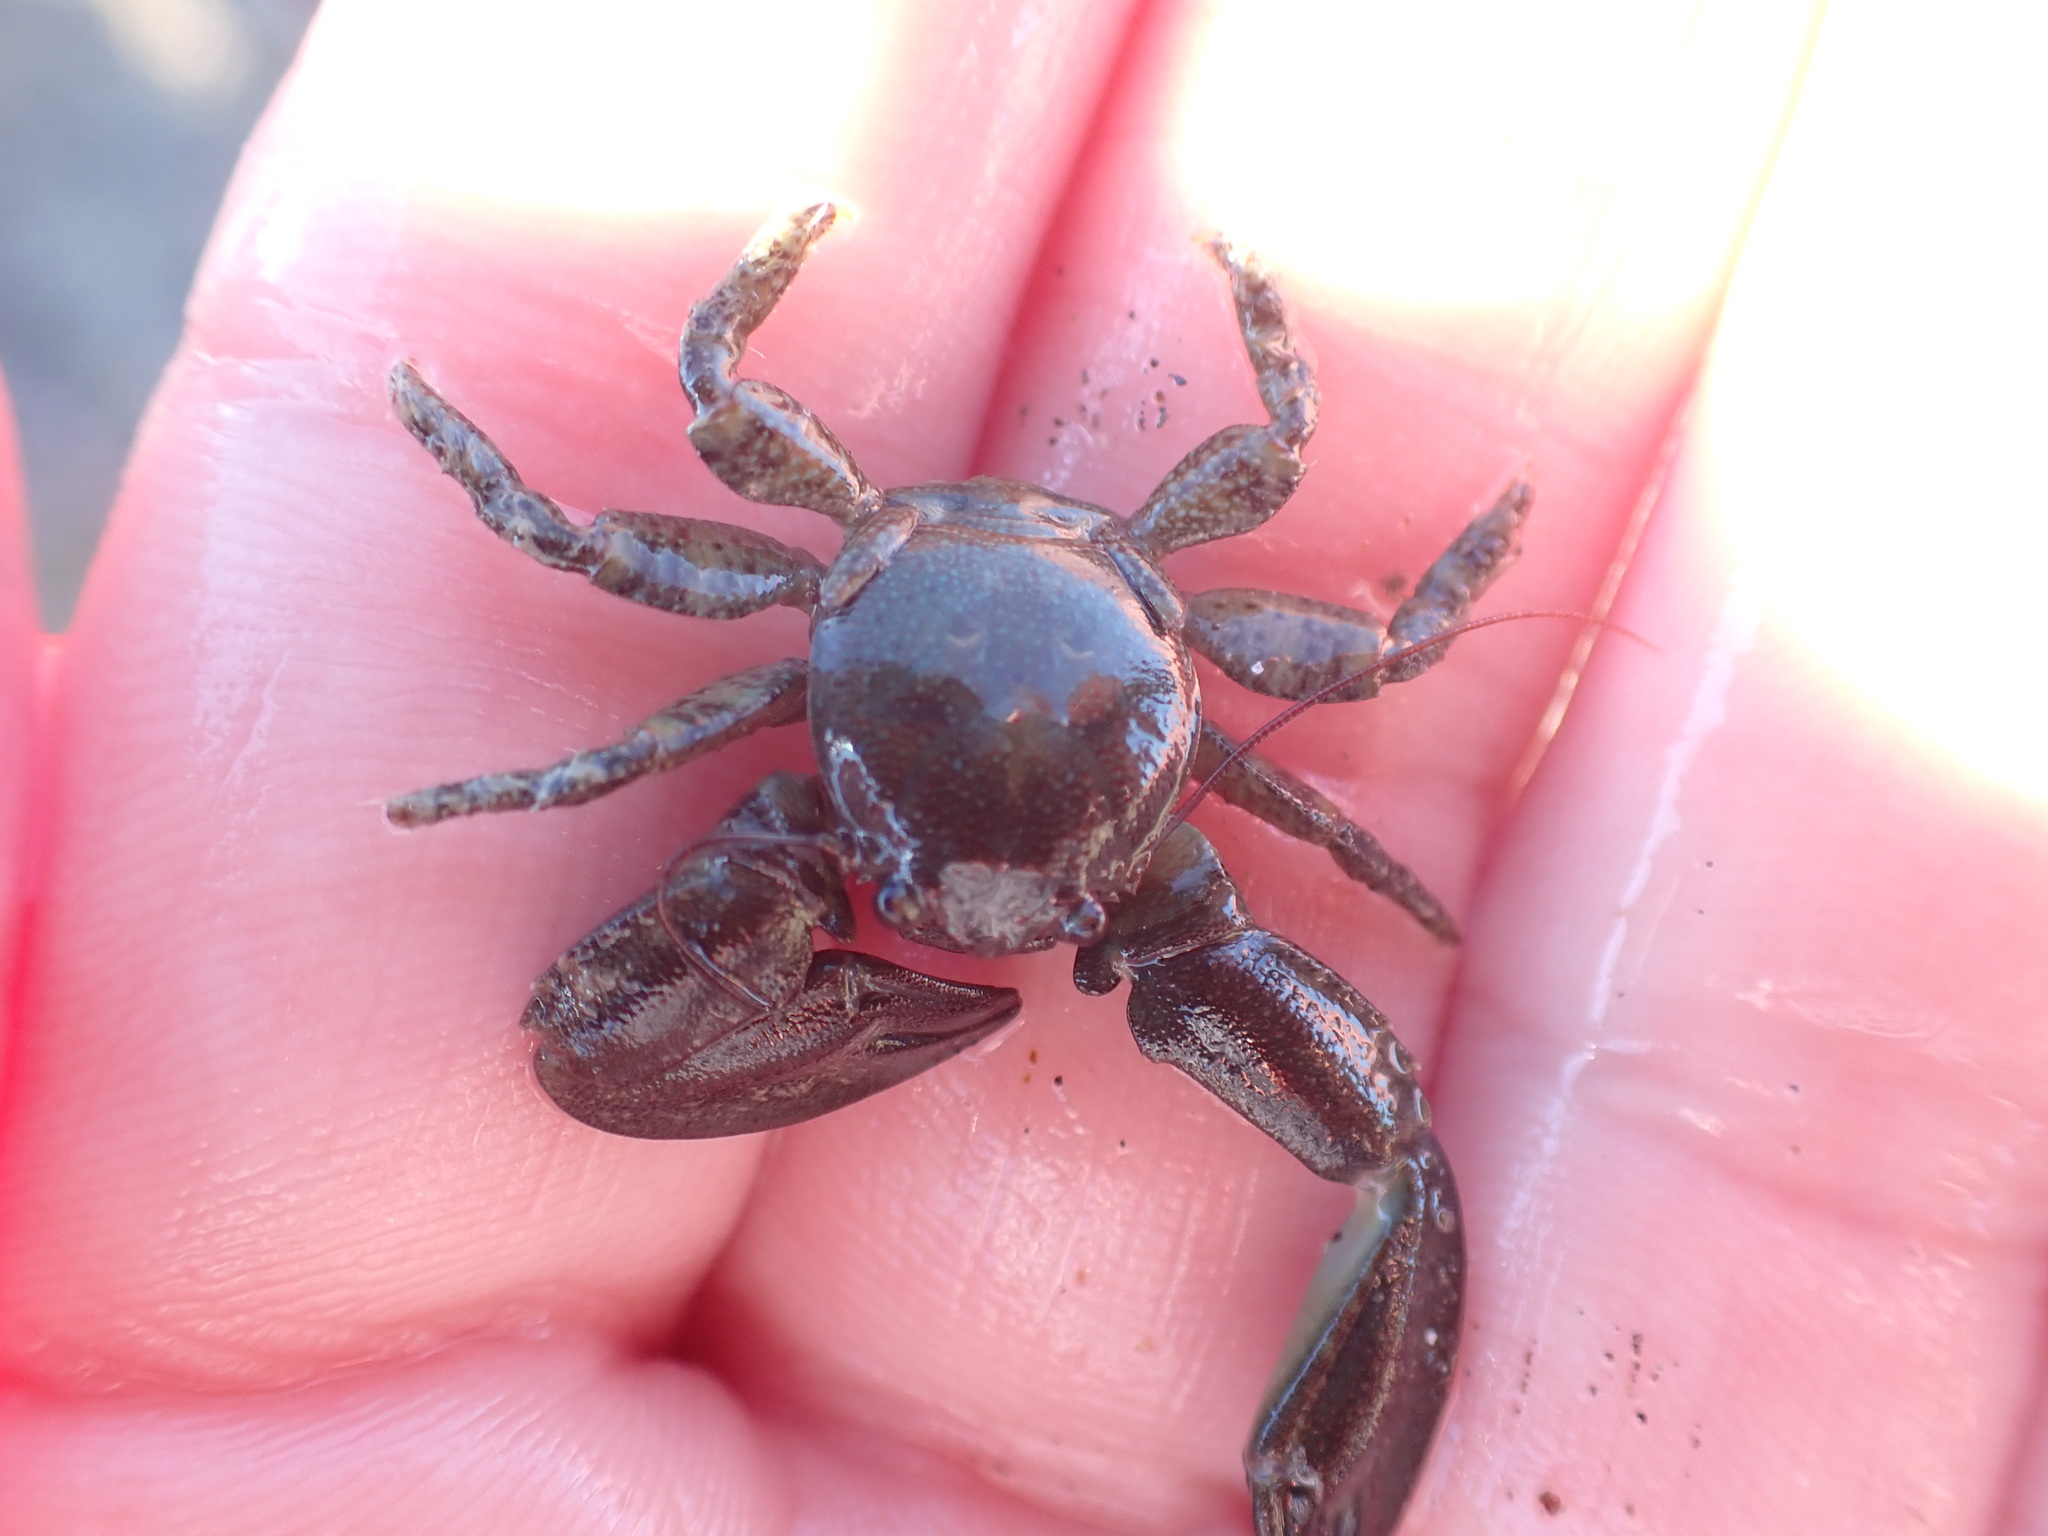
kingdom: Animalia
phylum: Arthropoda
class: Malacostraca
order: Decapoda
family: Porcellanidae
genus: Petrolisthes
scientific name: Petrolisthes elongatus
